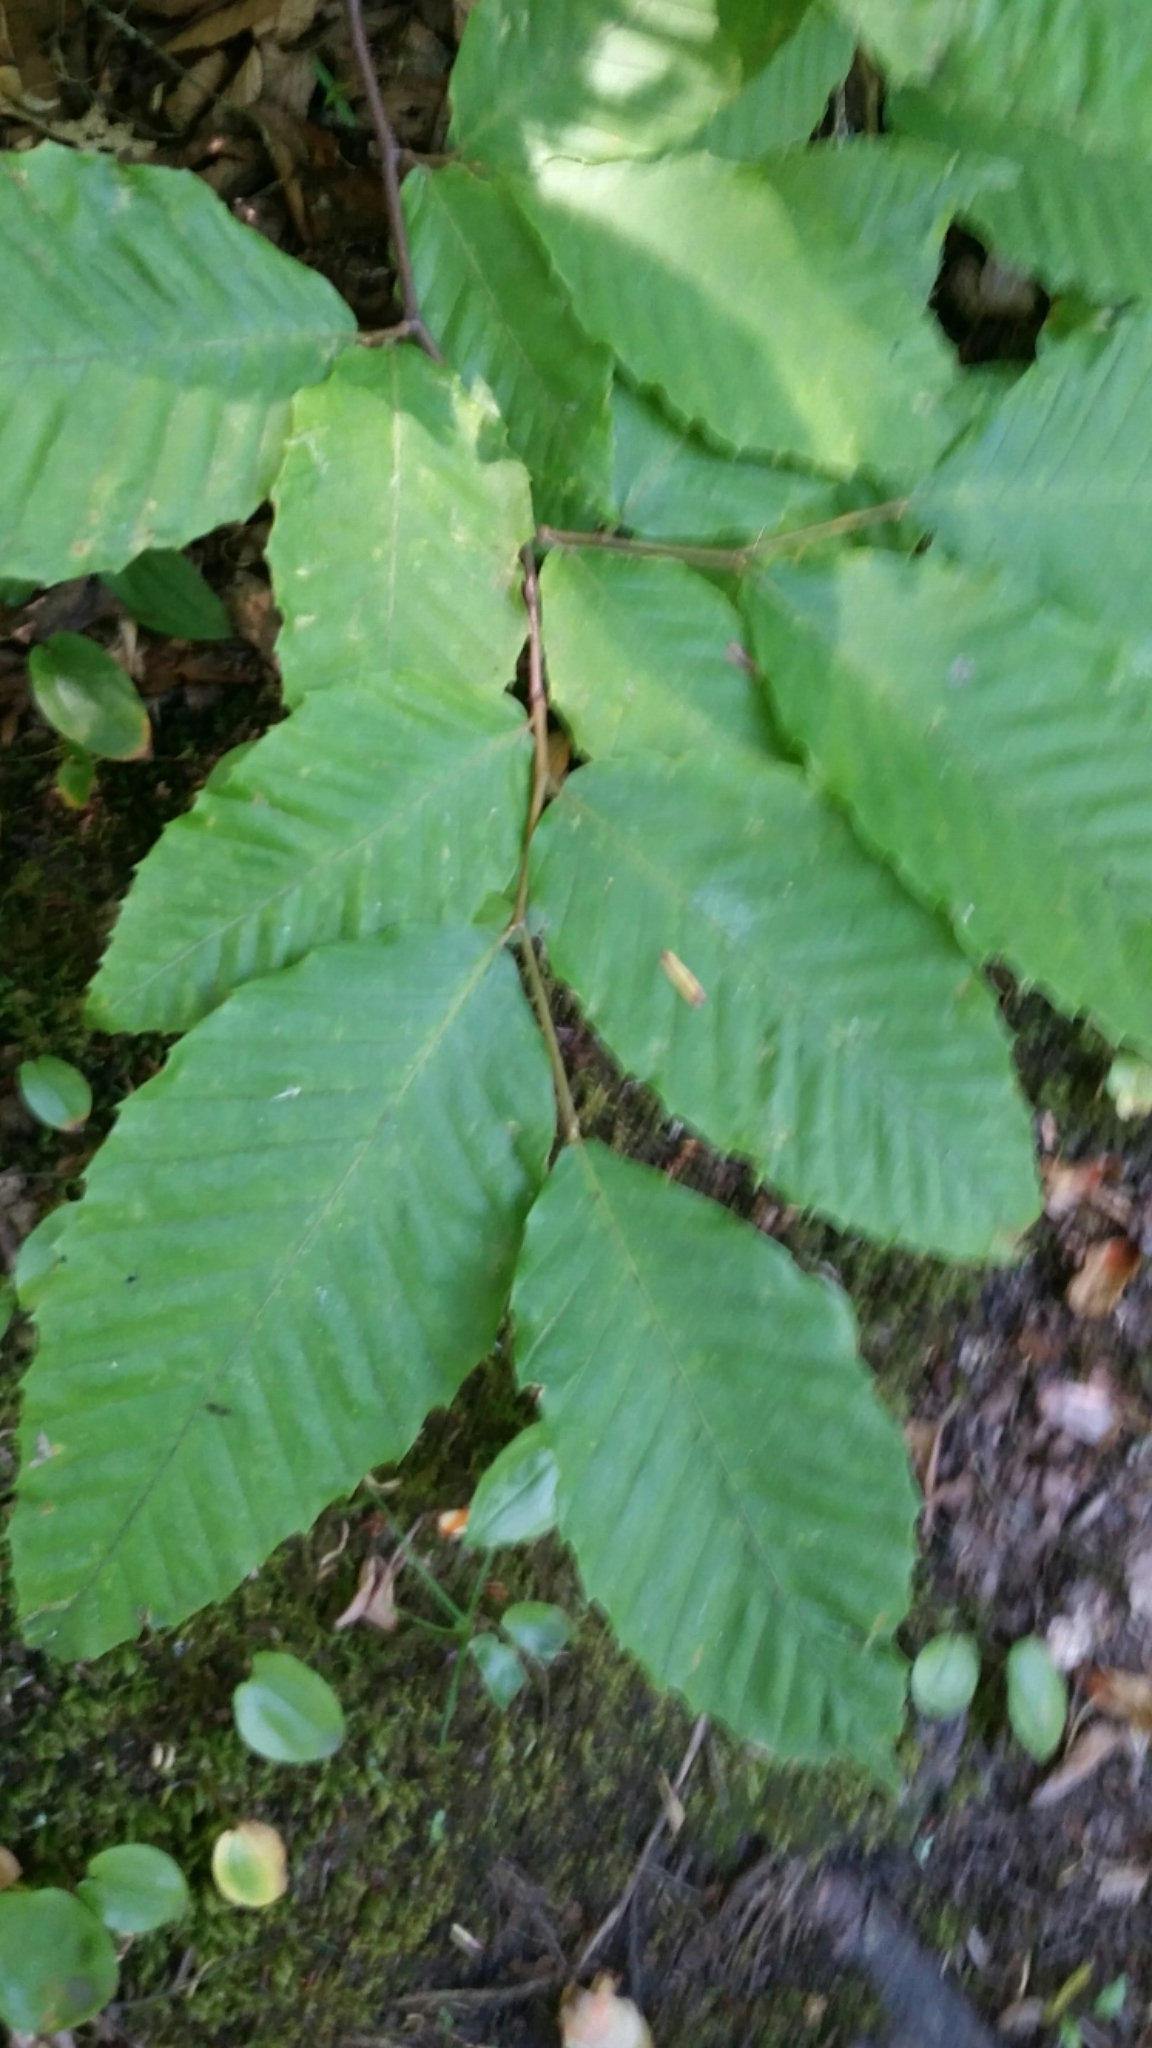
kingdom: Plantae
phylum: Tracheophyta
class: Magnoliopsida
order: Fagales
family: Fagaceae
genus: Fagus
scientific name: Fagus grandifolia
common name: American beech
